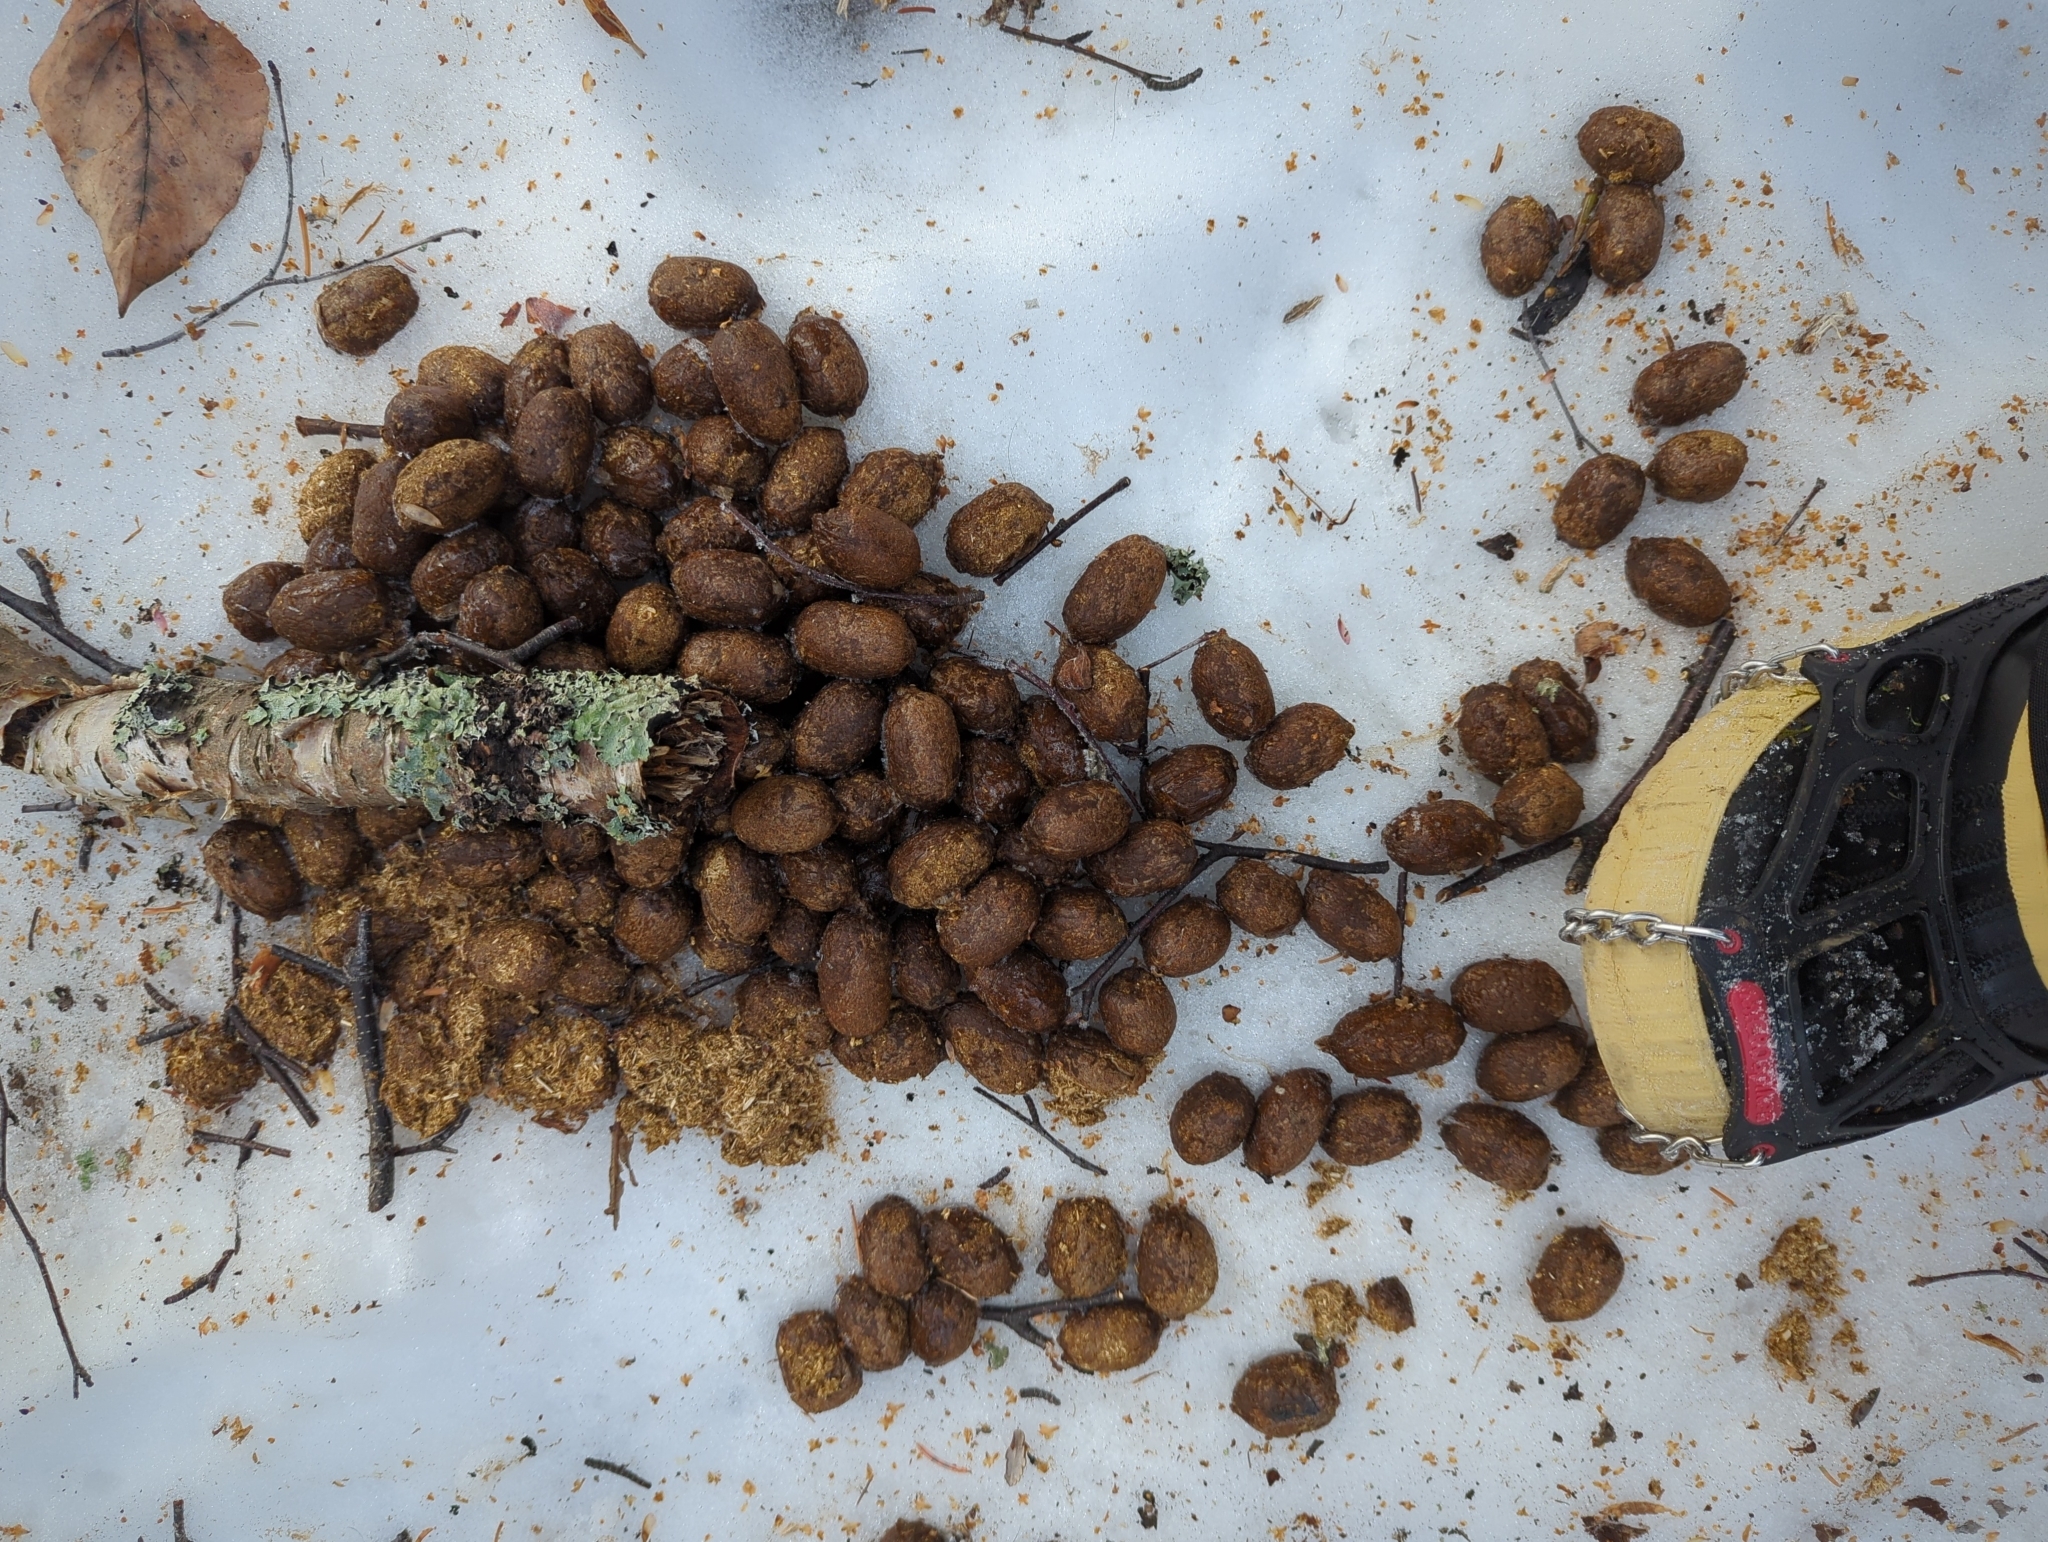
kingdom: Animalia
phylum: Chordata
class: Mammalia
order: Artiodactyla
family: Cervidae
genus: Alces
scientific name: Alces alces
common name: Moose
